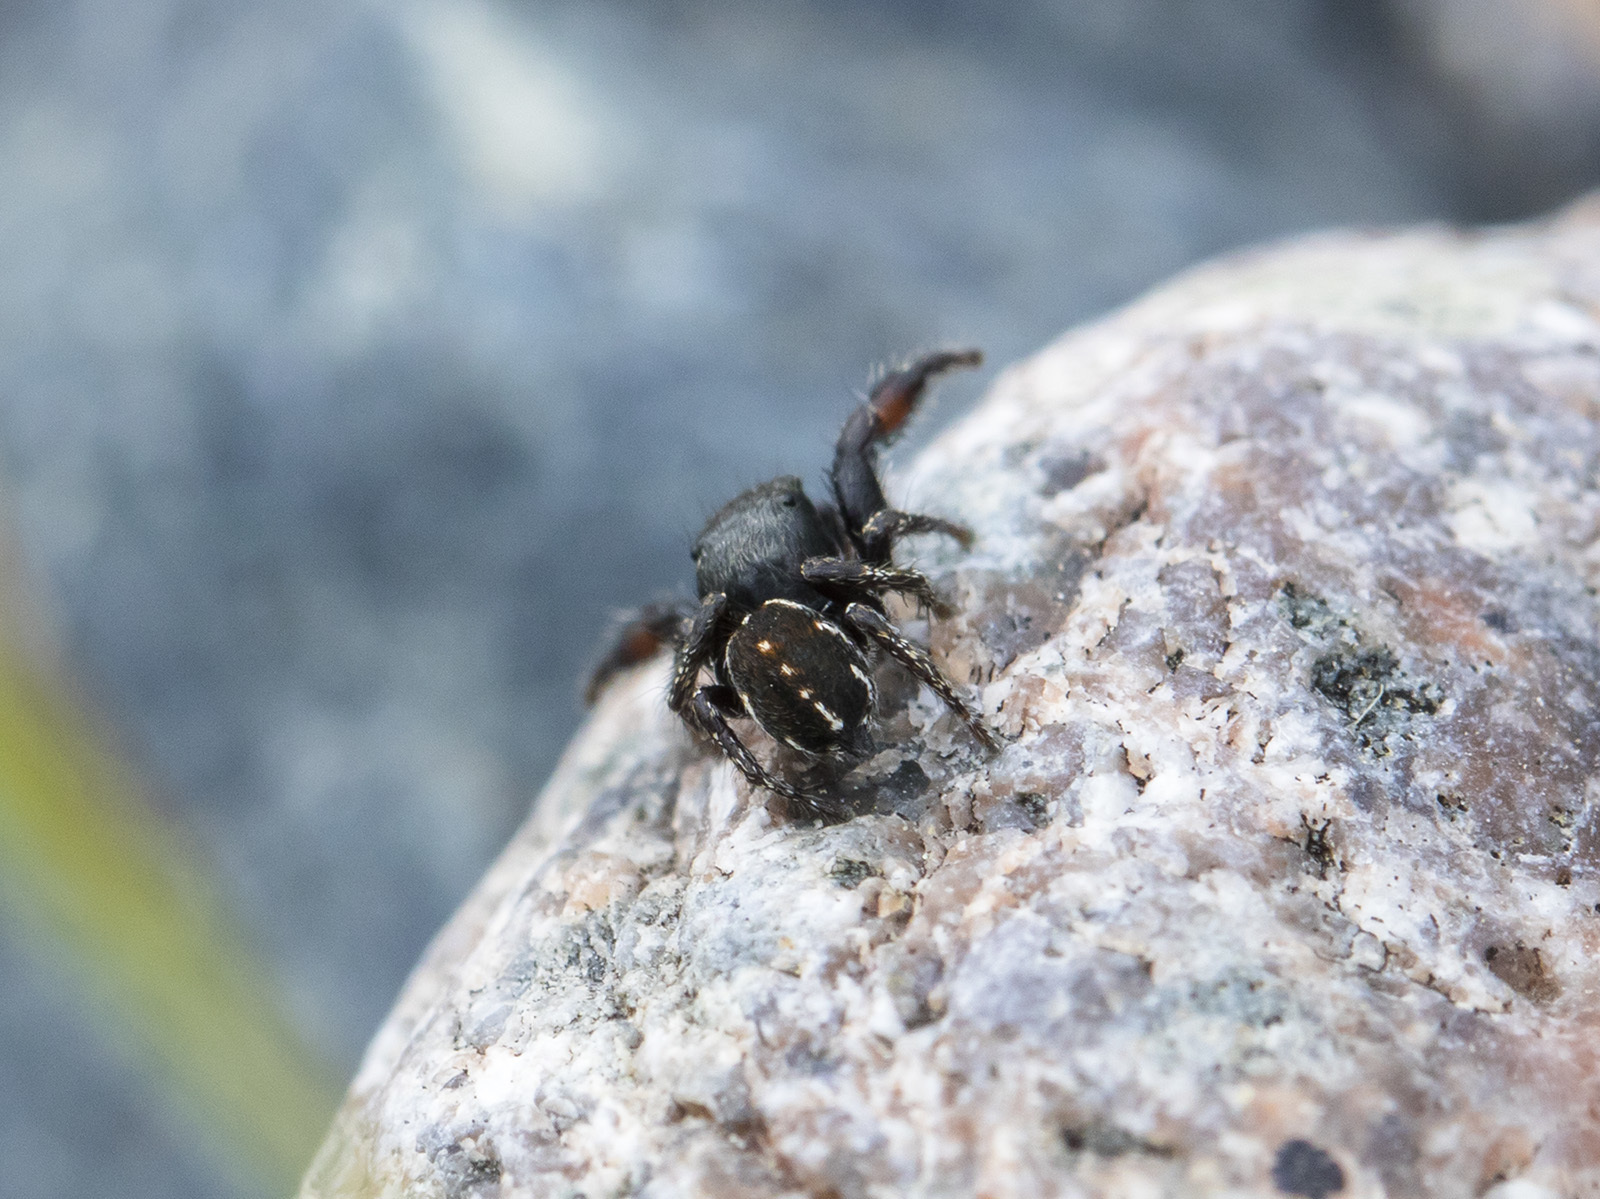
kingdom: Animalia
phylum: Arthropoda
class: Arachnida
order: Araneae
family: Salticidae
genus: Pellenes
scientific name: Pellenes allegrii
